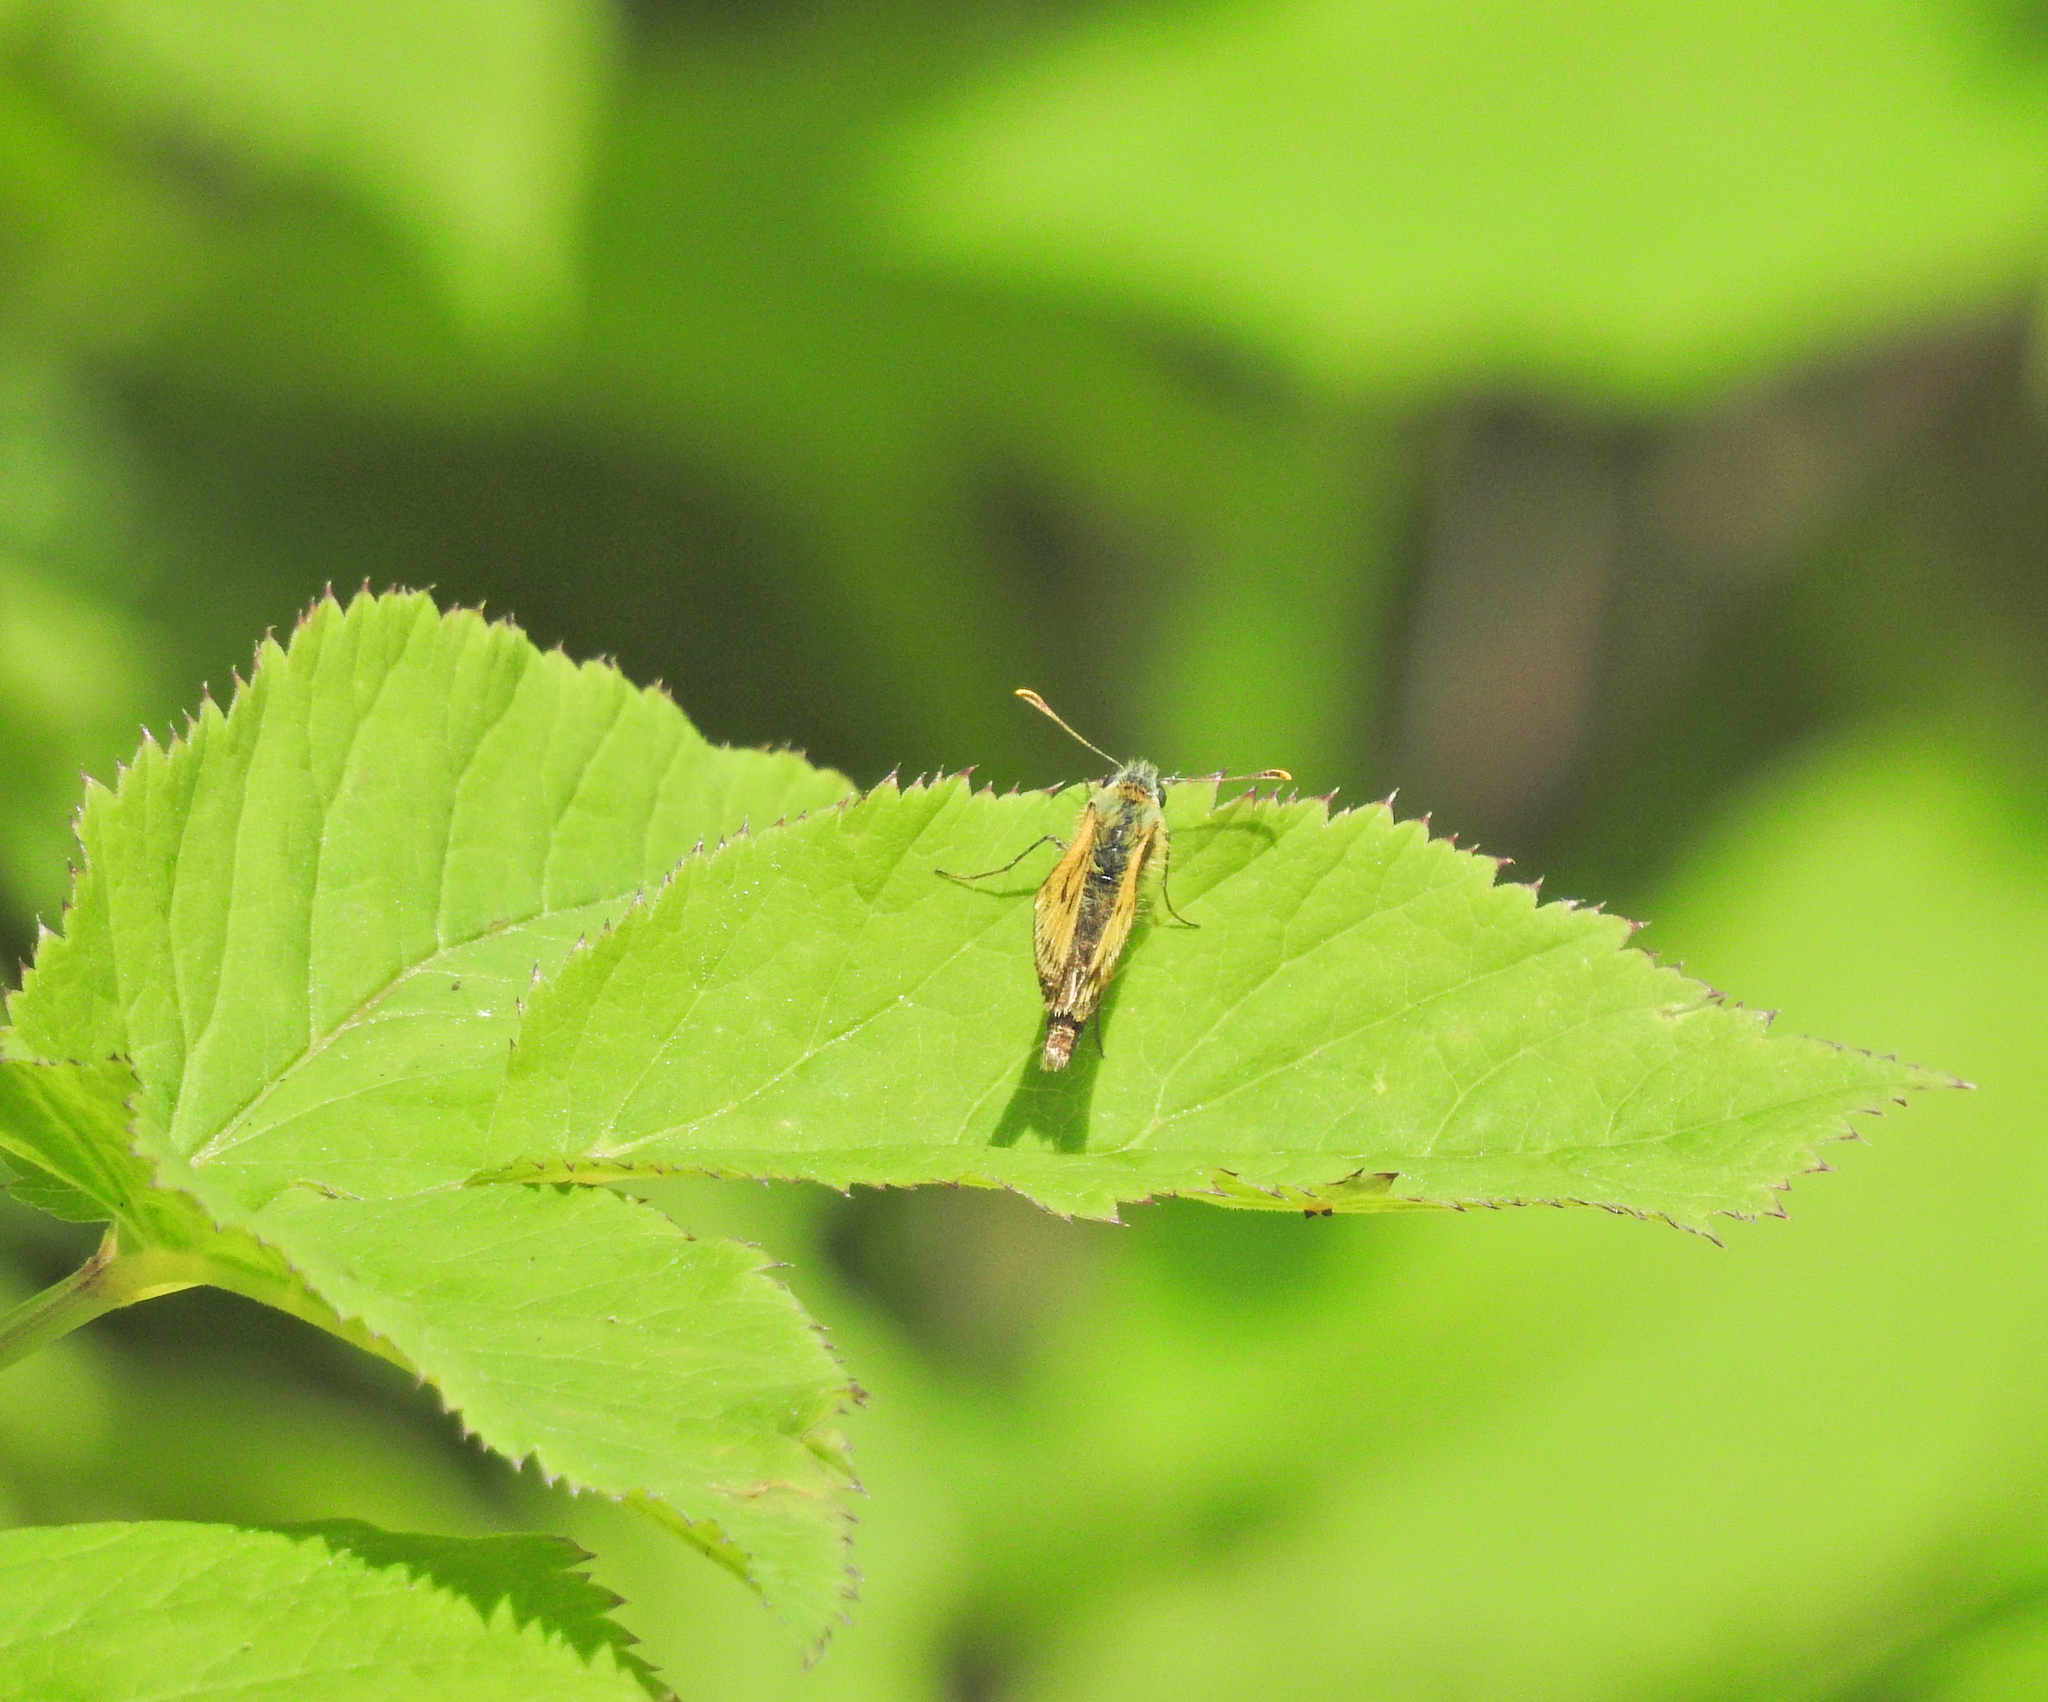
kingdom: Animalia
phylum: Arthropoda
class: Insecta
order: Lepidoptera
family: Hesperiidae
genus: Carterocephalus
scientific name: Carterocephalus silvicola
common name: Northern chequered skipper
